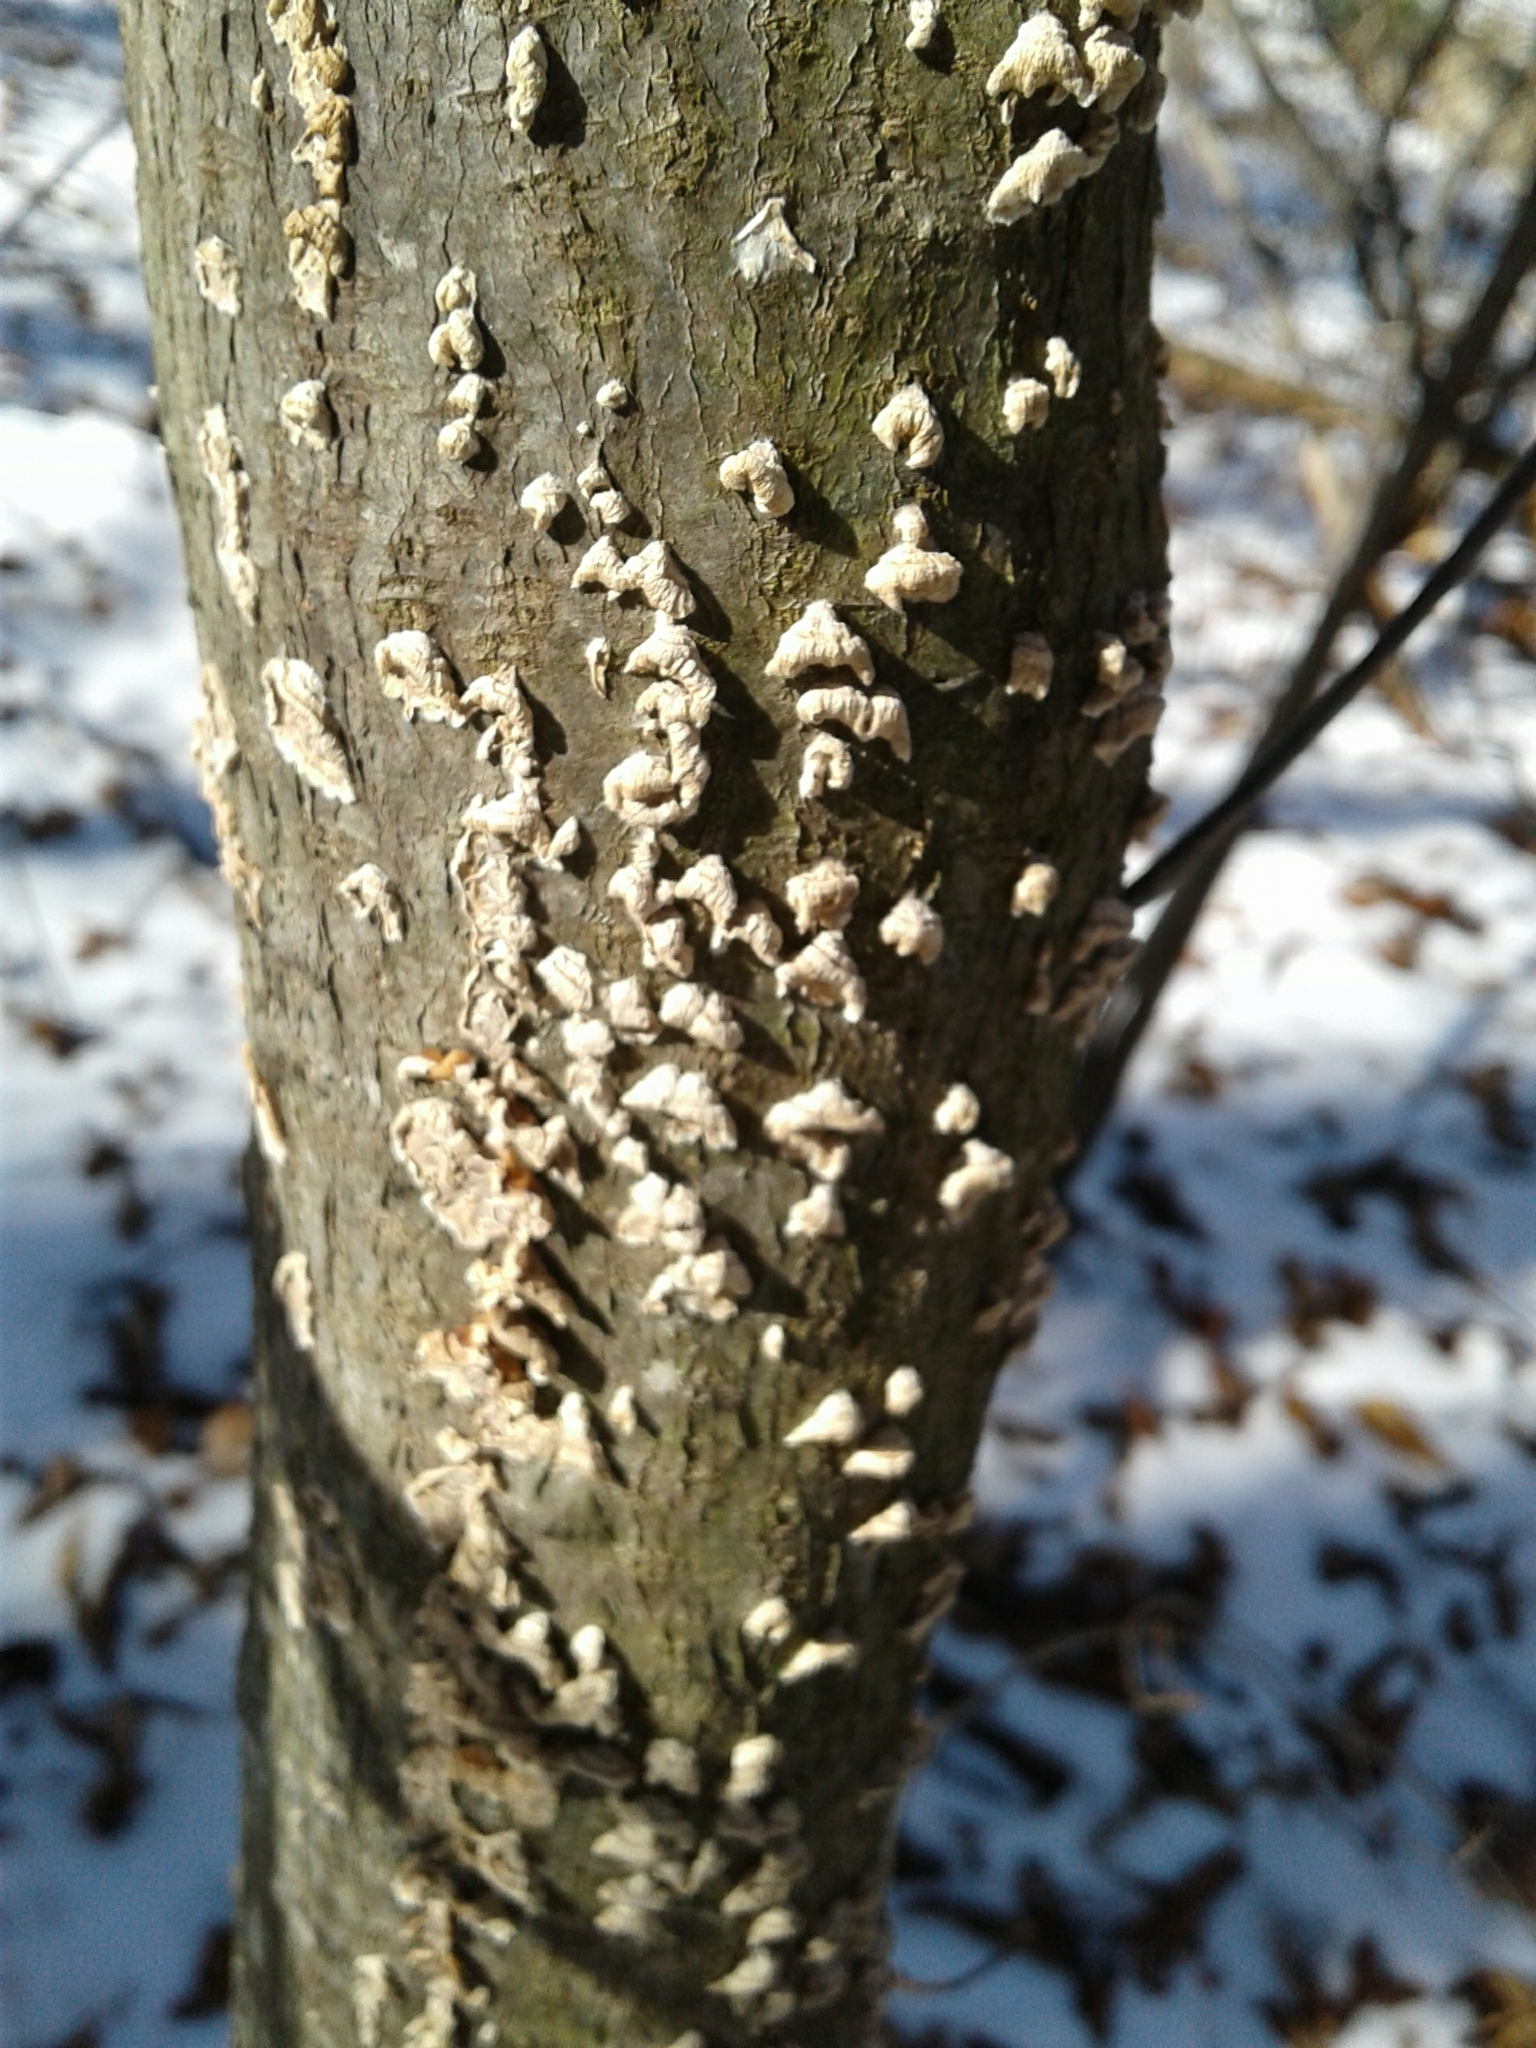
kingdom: Fungi
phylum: Basidiomycota
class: Agaricomycetes
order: Polyporales
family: Irpicaceae
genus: Irpex
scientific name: Irpex lacteus
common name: Milk-white toothed polypore
